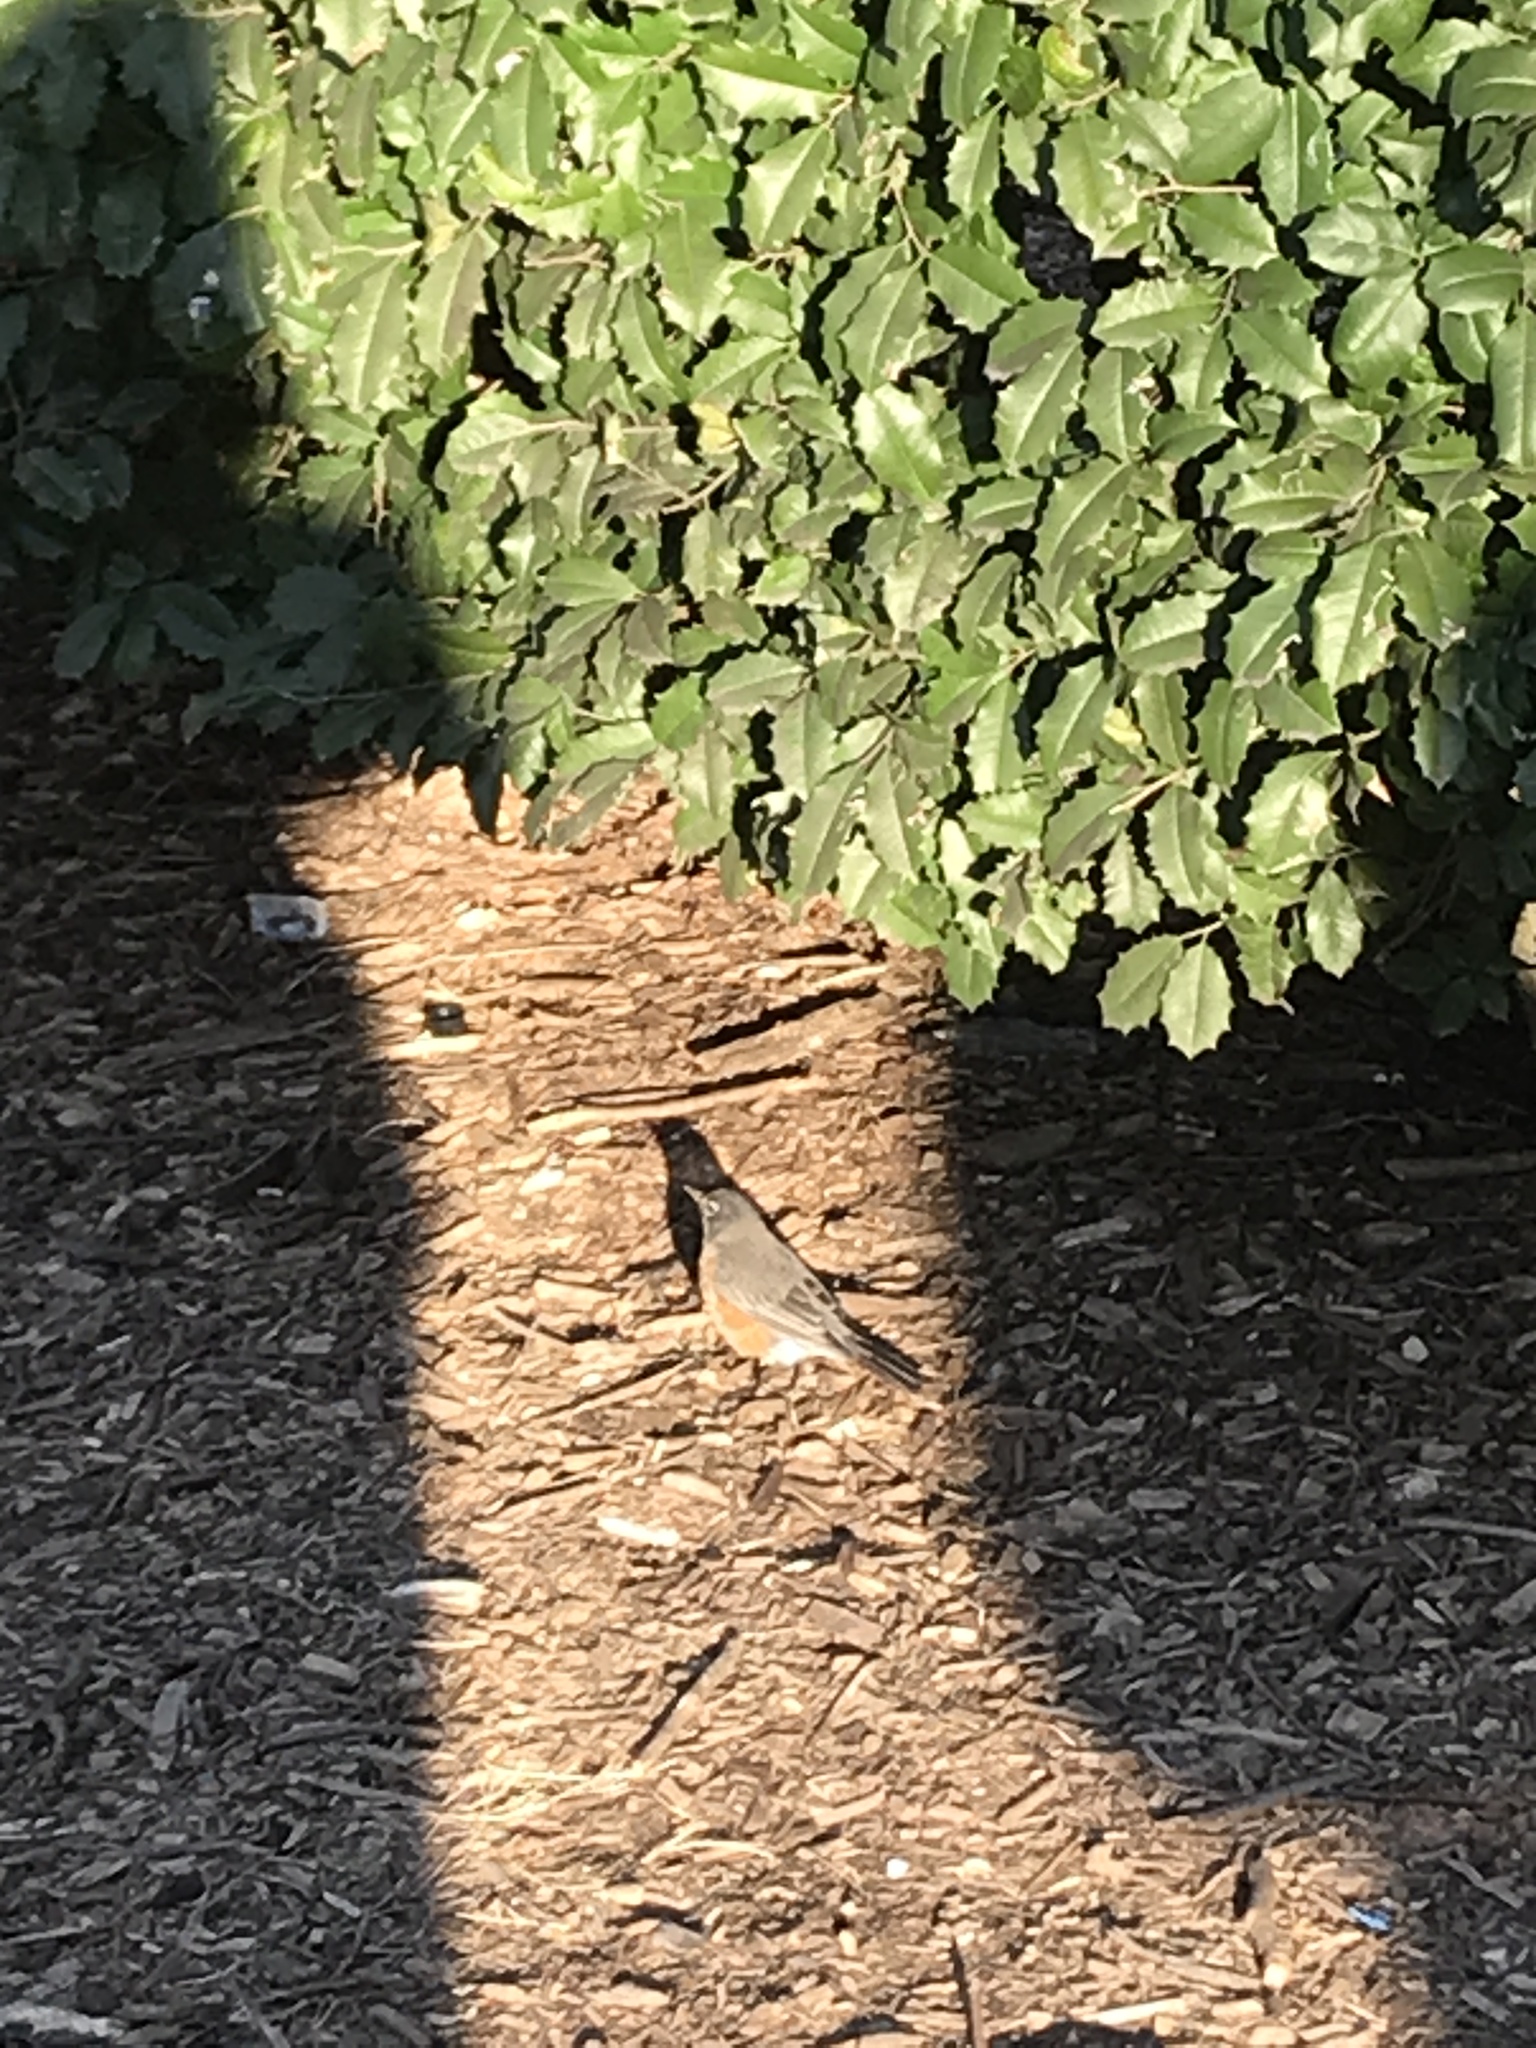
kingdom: Animalia
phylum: Chordata
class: Aves
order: Passeriformes
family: Turdidae
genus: Turdus
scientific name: Turdus migratorius
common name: American robin
